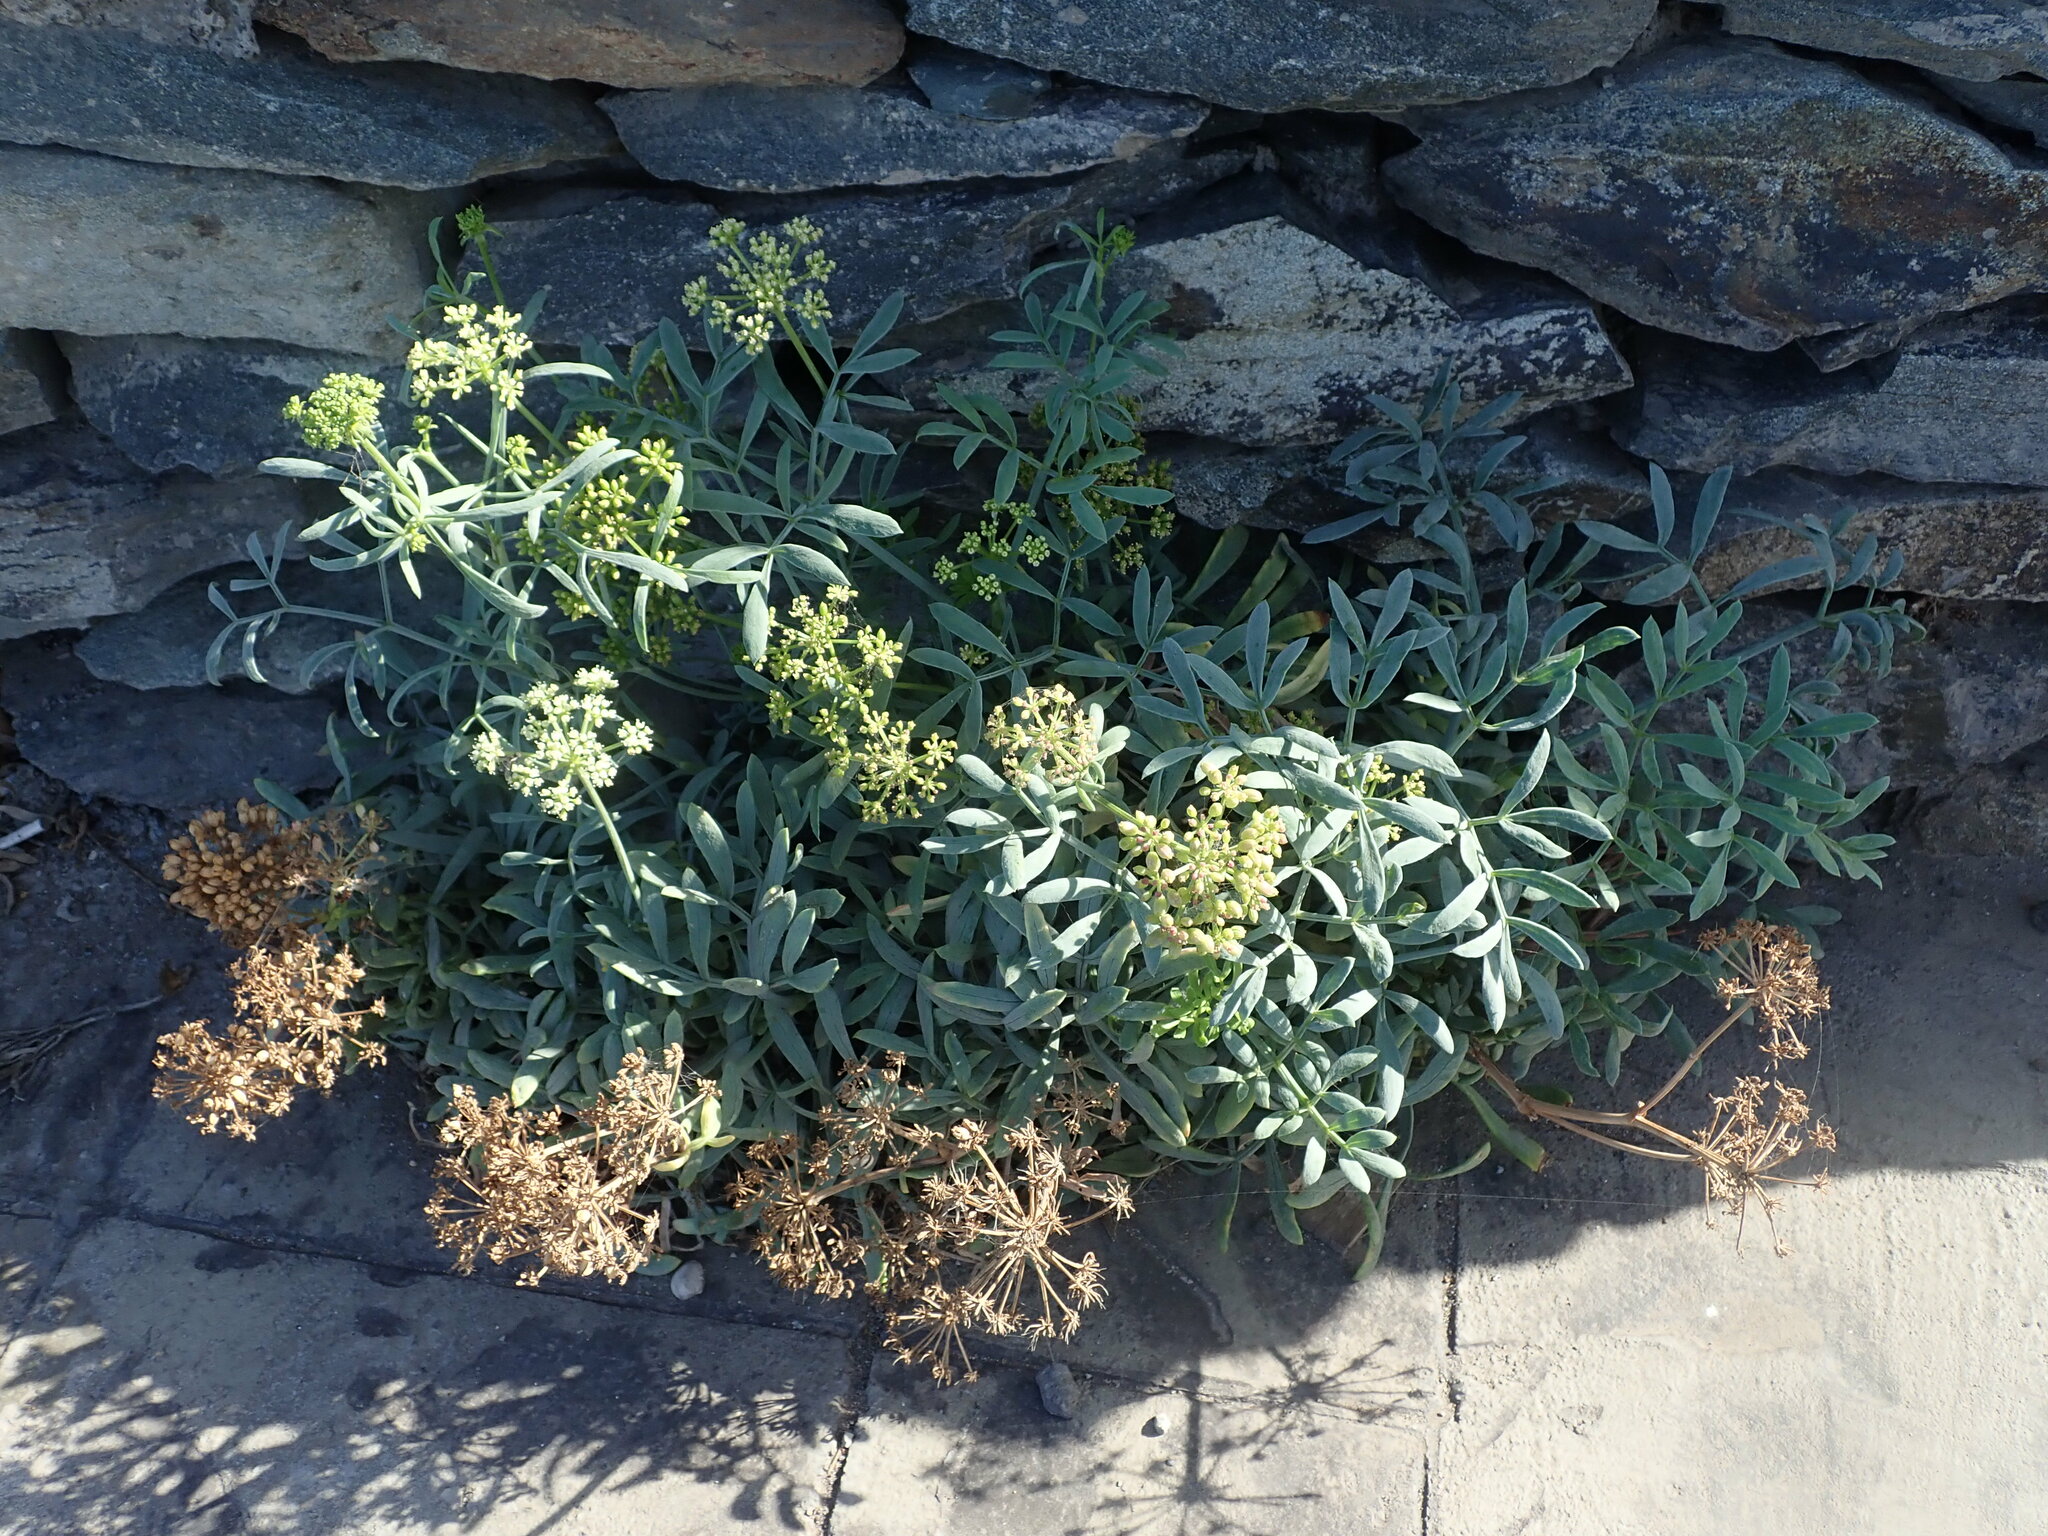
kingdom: Plantae
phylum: Tracheophyta
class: Magnoliopsida
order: Apiales
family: Apiaceae
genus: Crithmum
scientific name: Crithmum maritimum
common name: Rock samphire
